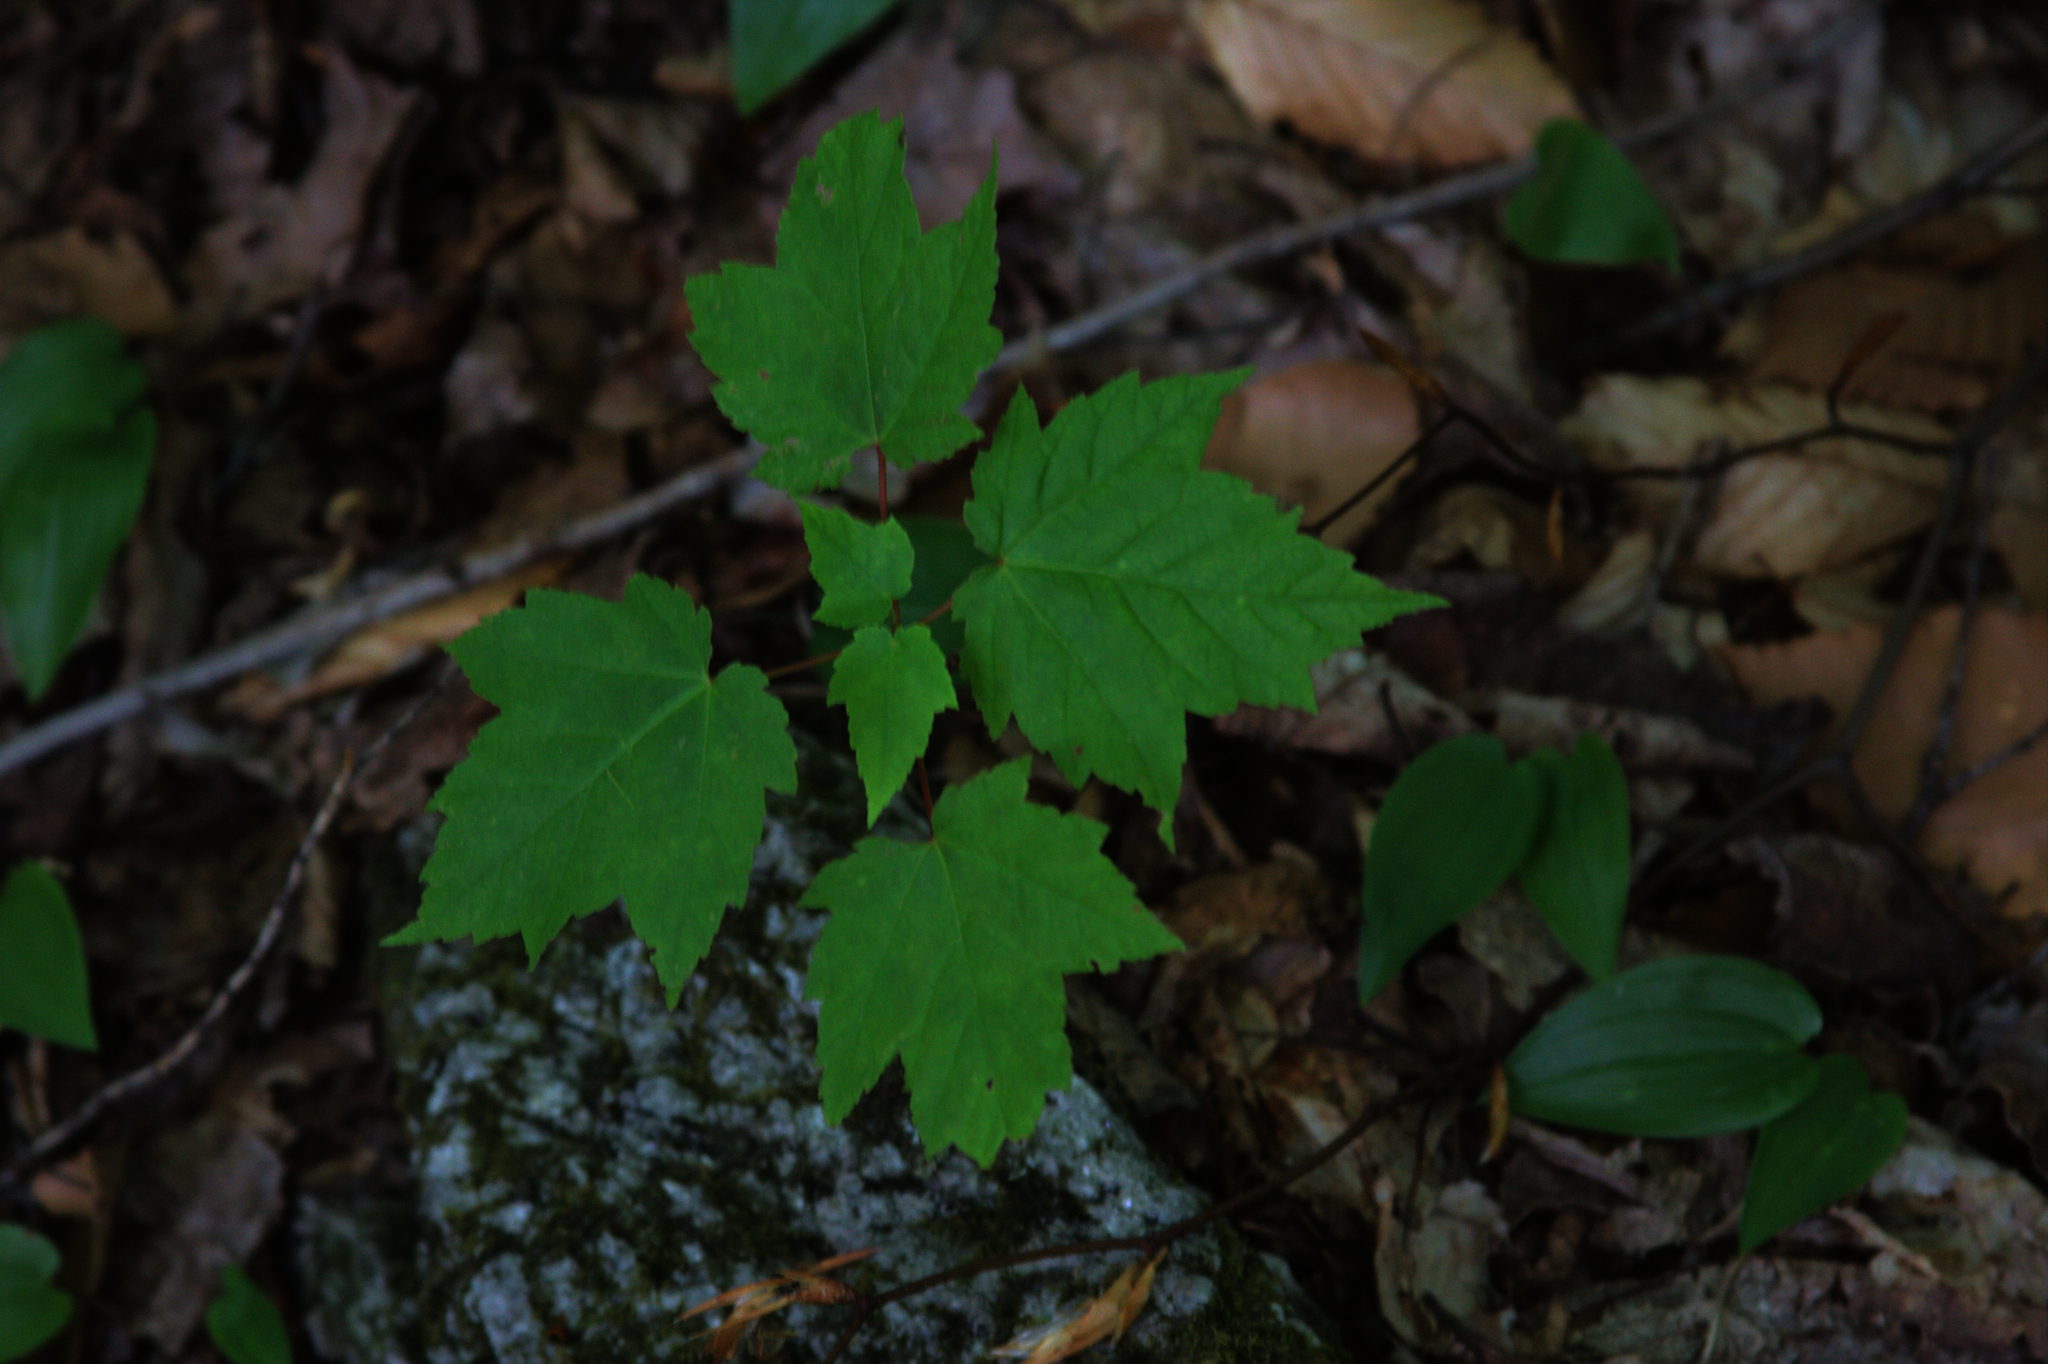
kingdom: Plantae
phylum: Tracheophyta
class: Liliopsida
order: Asparagales
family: Asparagaceae
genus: Maianthemum
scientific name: Maianthemum canadense
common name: False lily-of-the-valley
